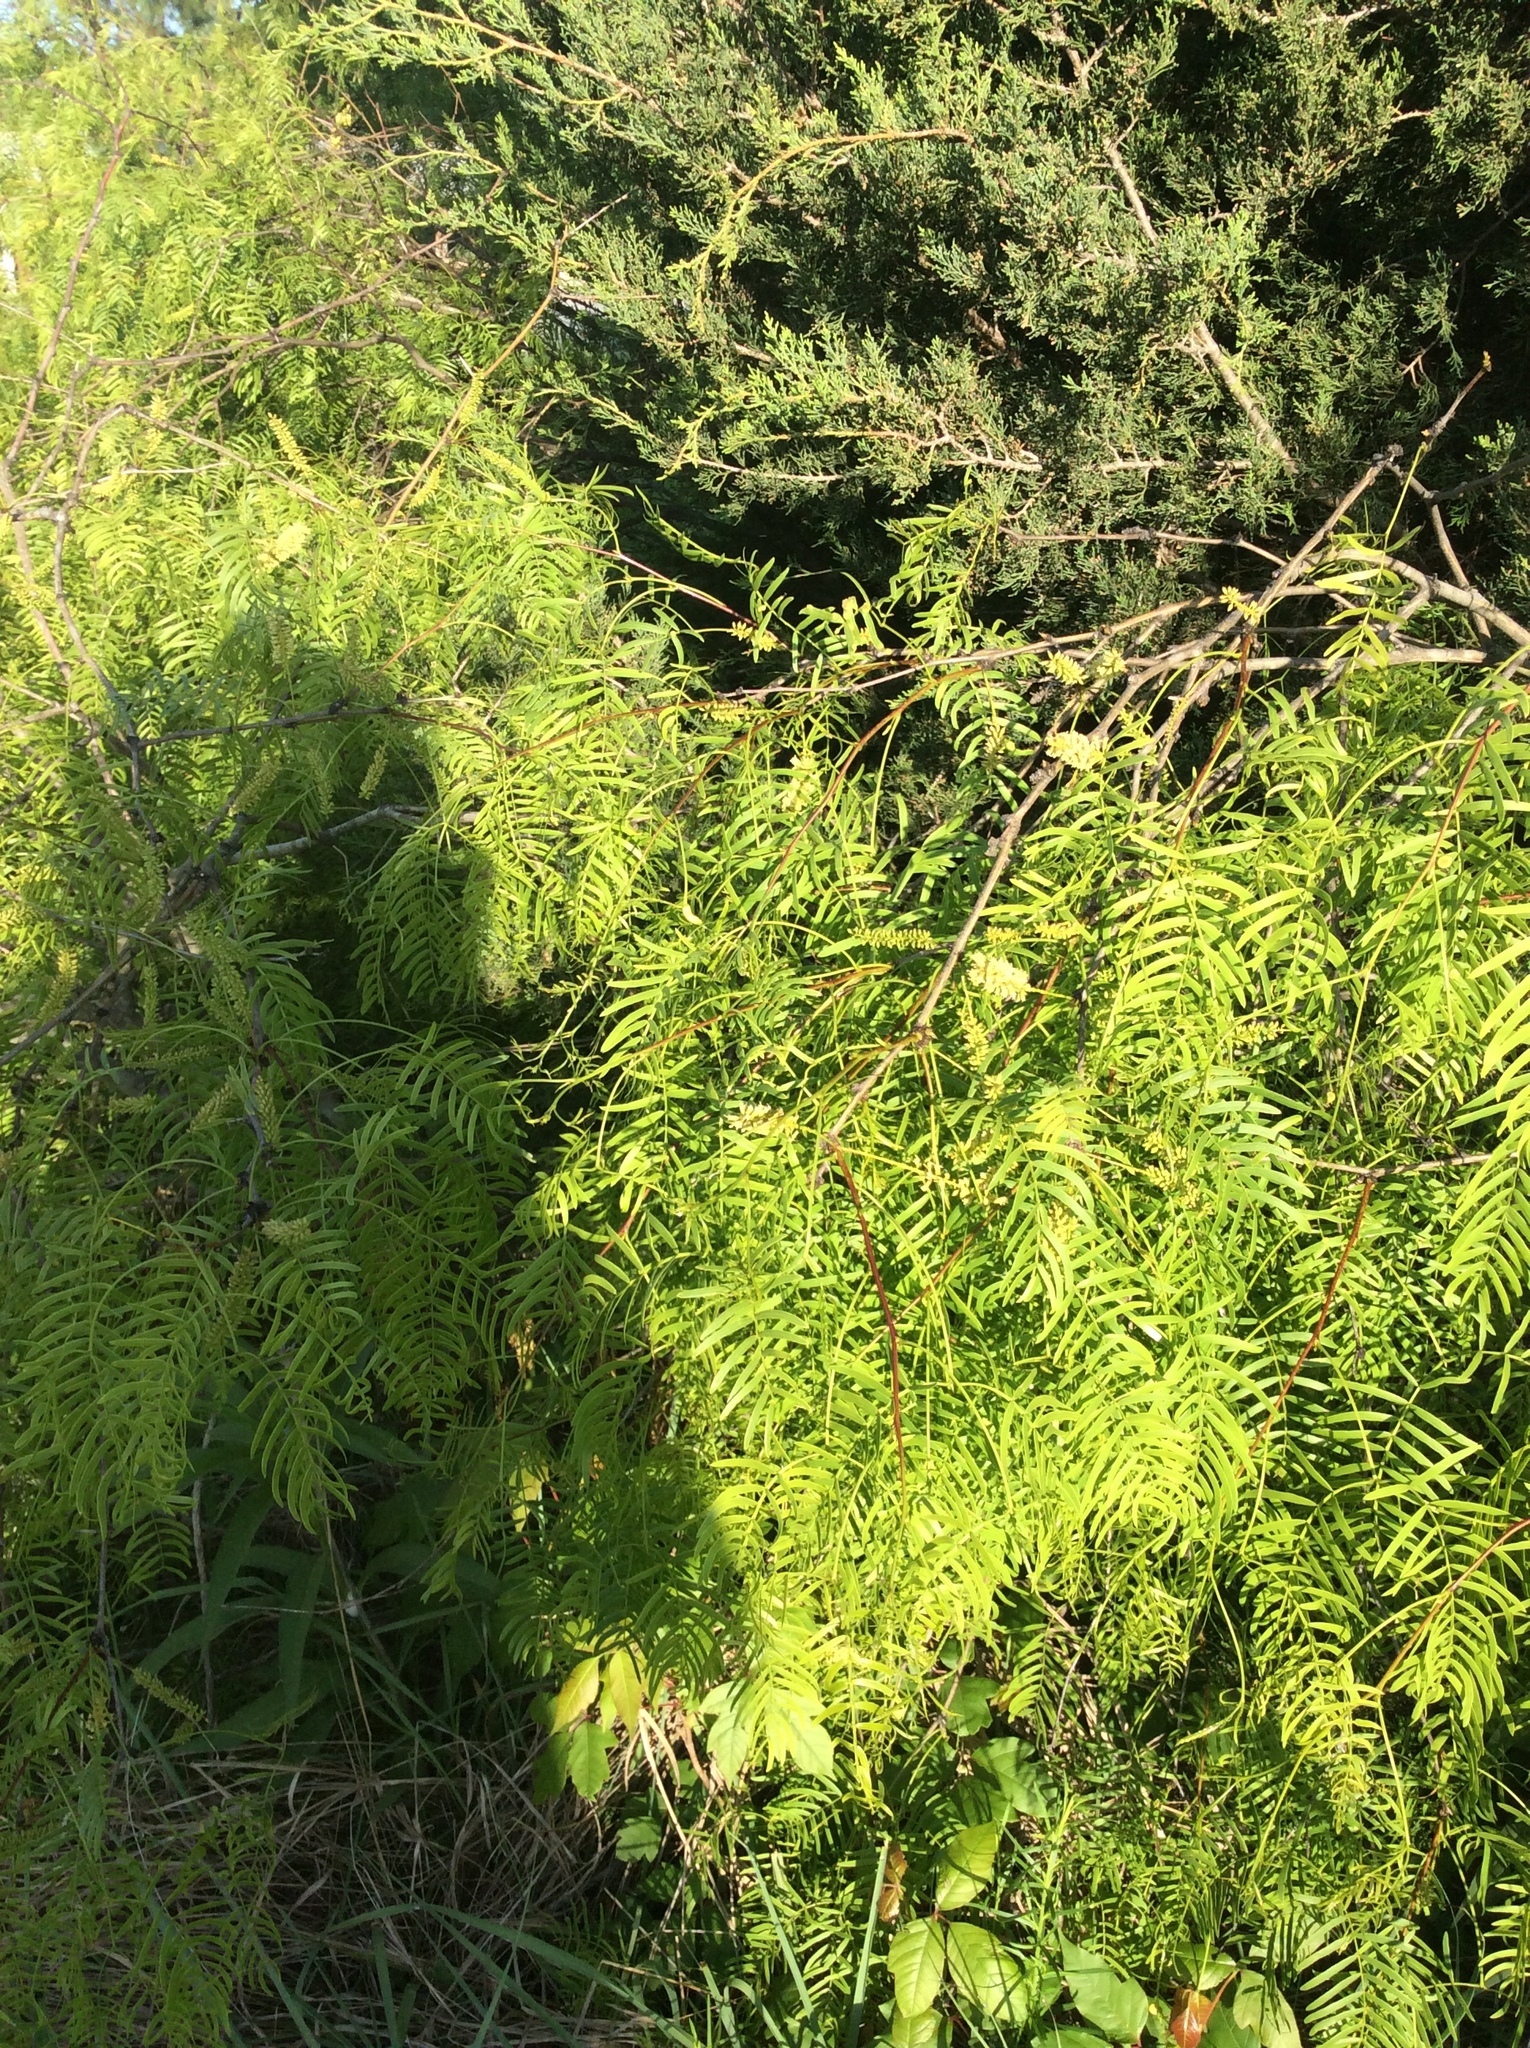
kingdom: Plantae
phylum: Tracheophyta
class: Magnoliopsida
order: Fabales
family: Fabaceae
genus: Gleditsia
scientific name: Gleditsia triacanthos
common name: Common honeylocust
